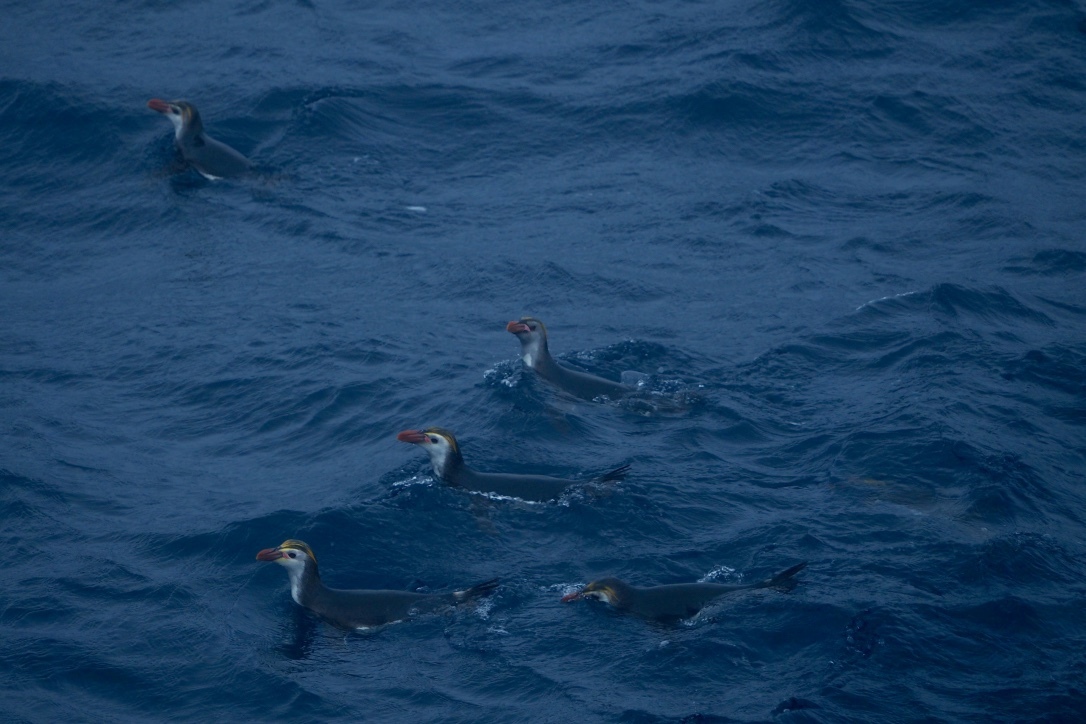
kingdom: Animalia
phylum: Chordata
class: Aves
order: Sphenisciformes
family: Spheniscidae
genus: Eudyptes
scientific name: Eudyptes schlegeli
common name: Royal penguin
